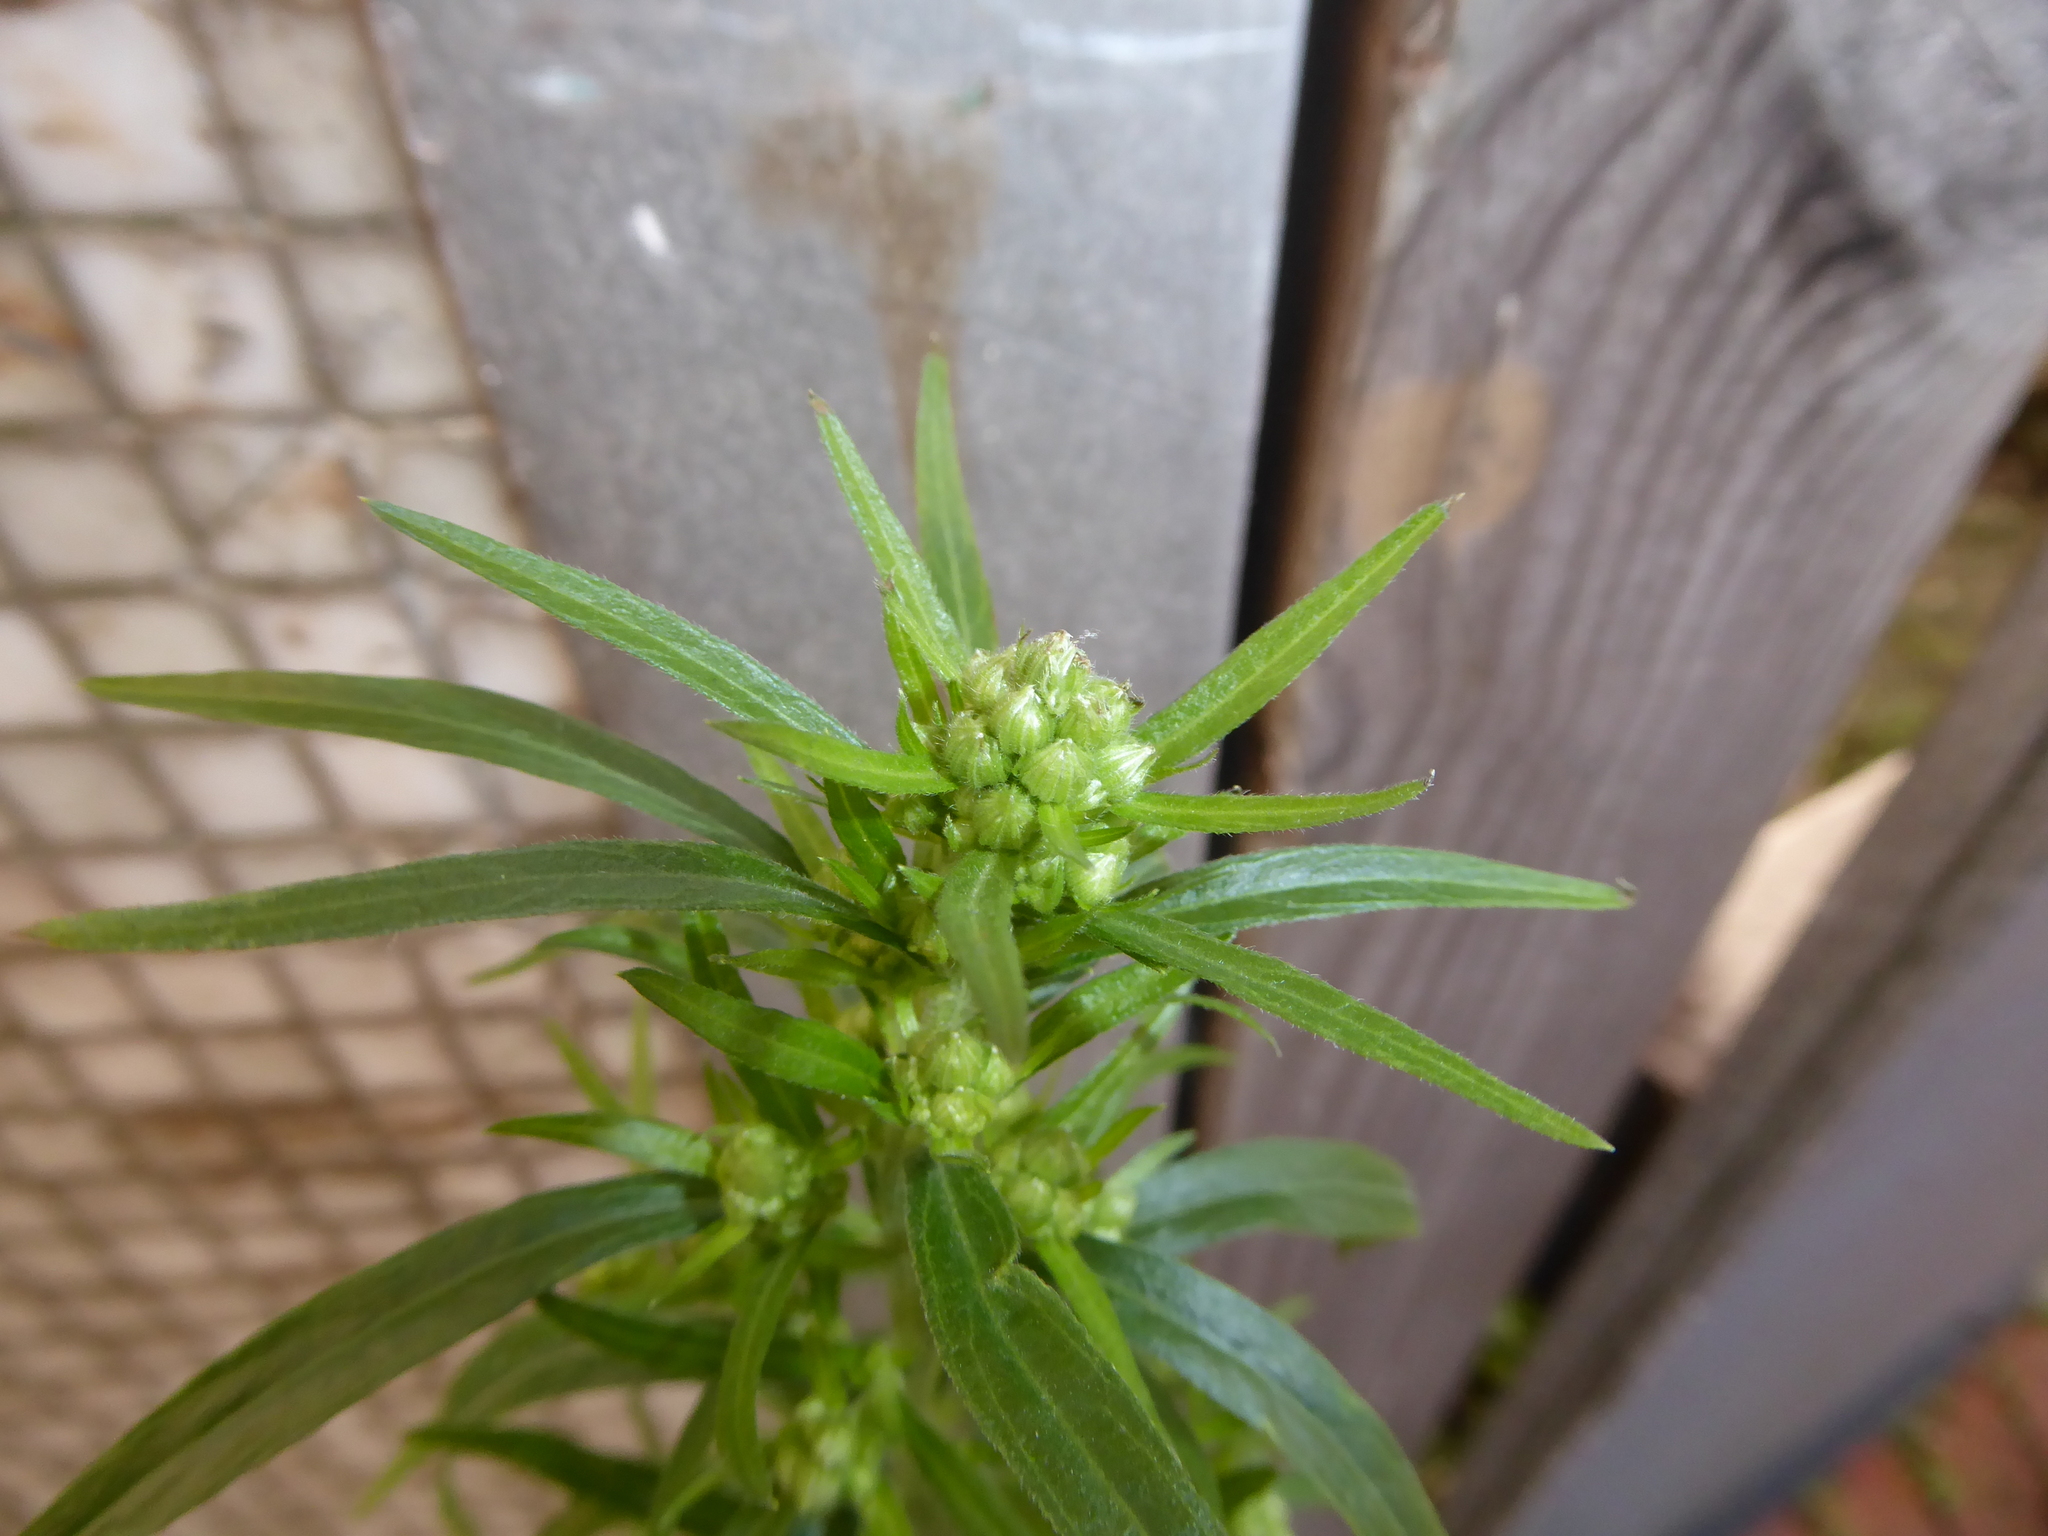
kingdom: Plantae
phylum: Tracheophyta
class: Magnoliopsida
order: Asterales
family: Asteraceae
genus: Erigeron
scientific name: Erigeron sumatrensis
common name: Daisy
